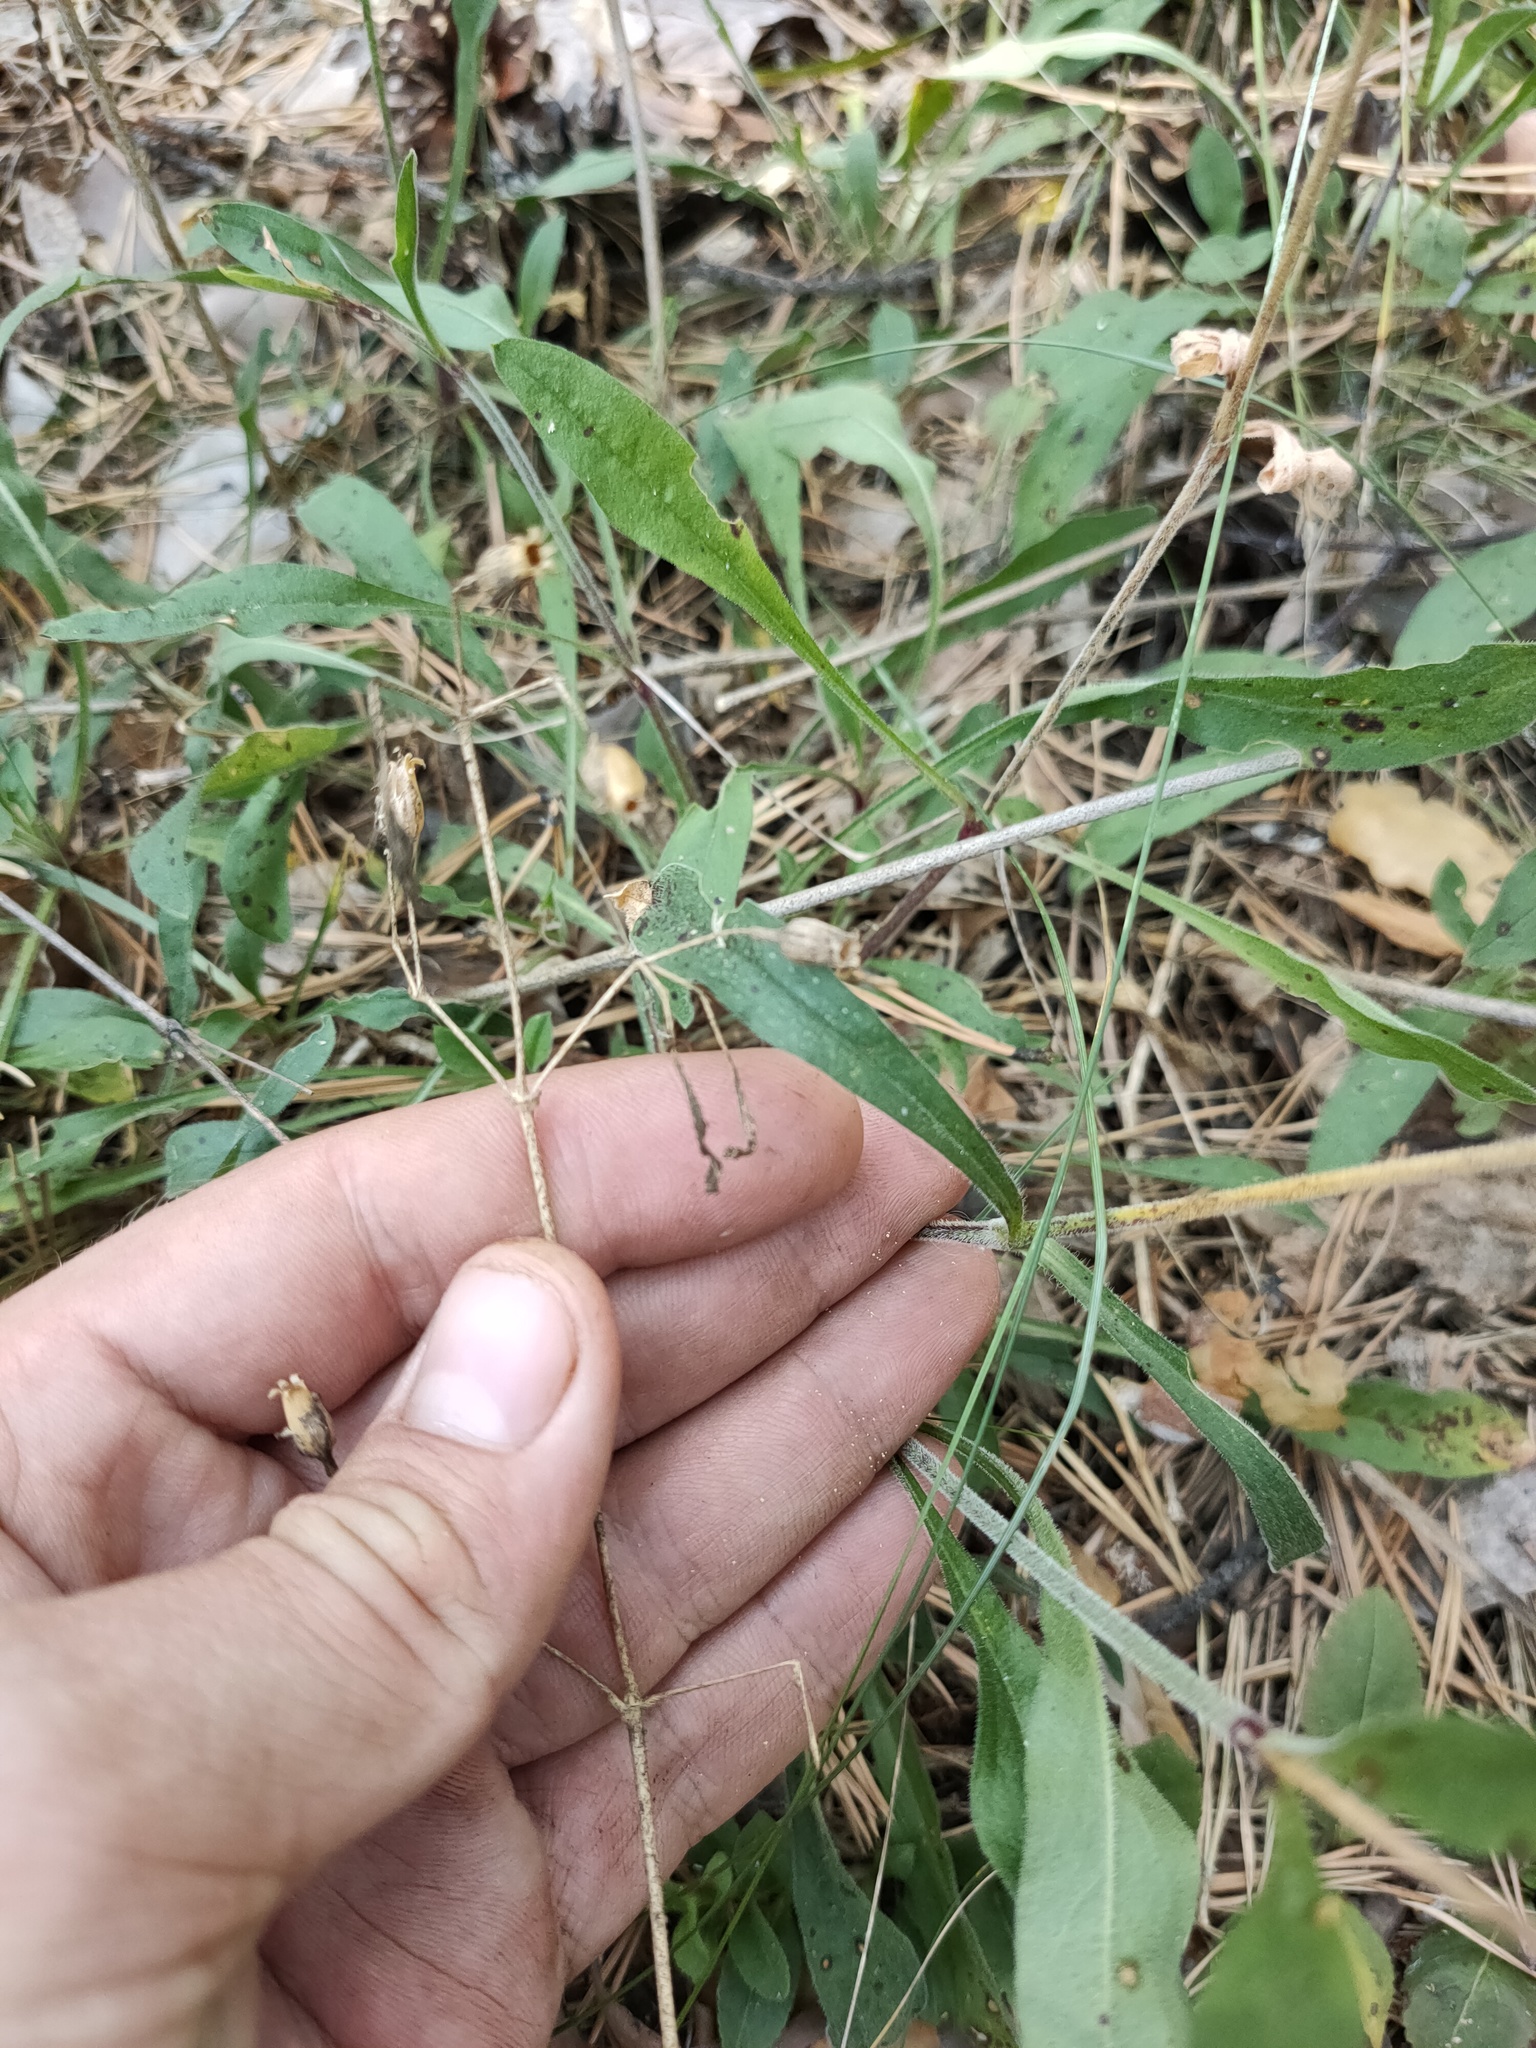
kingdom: Plantae
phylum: Tracheophyta
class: Magnoliopsida
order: Caryophyllales
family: Caryophyllaceae
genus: Silene
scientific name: Silene nutans
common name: Nottingham catchfly
